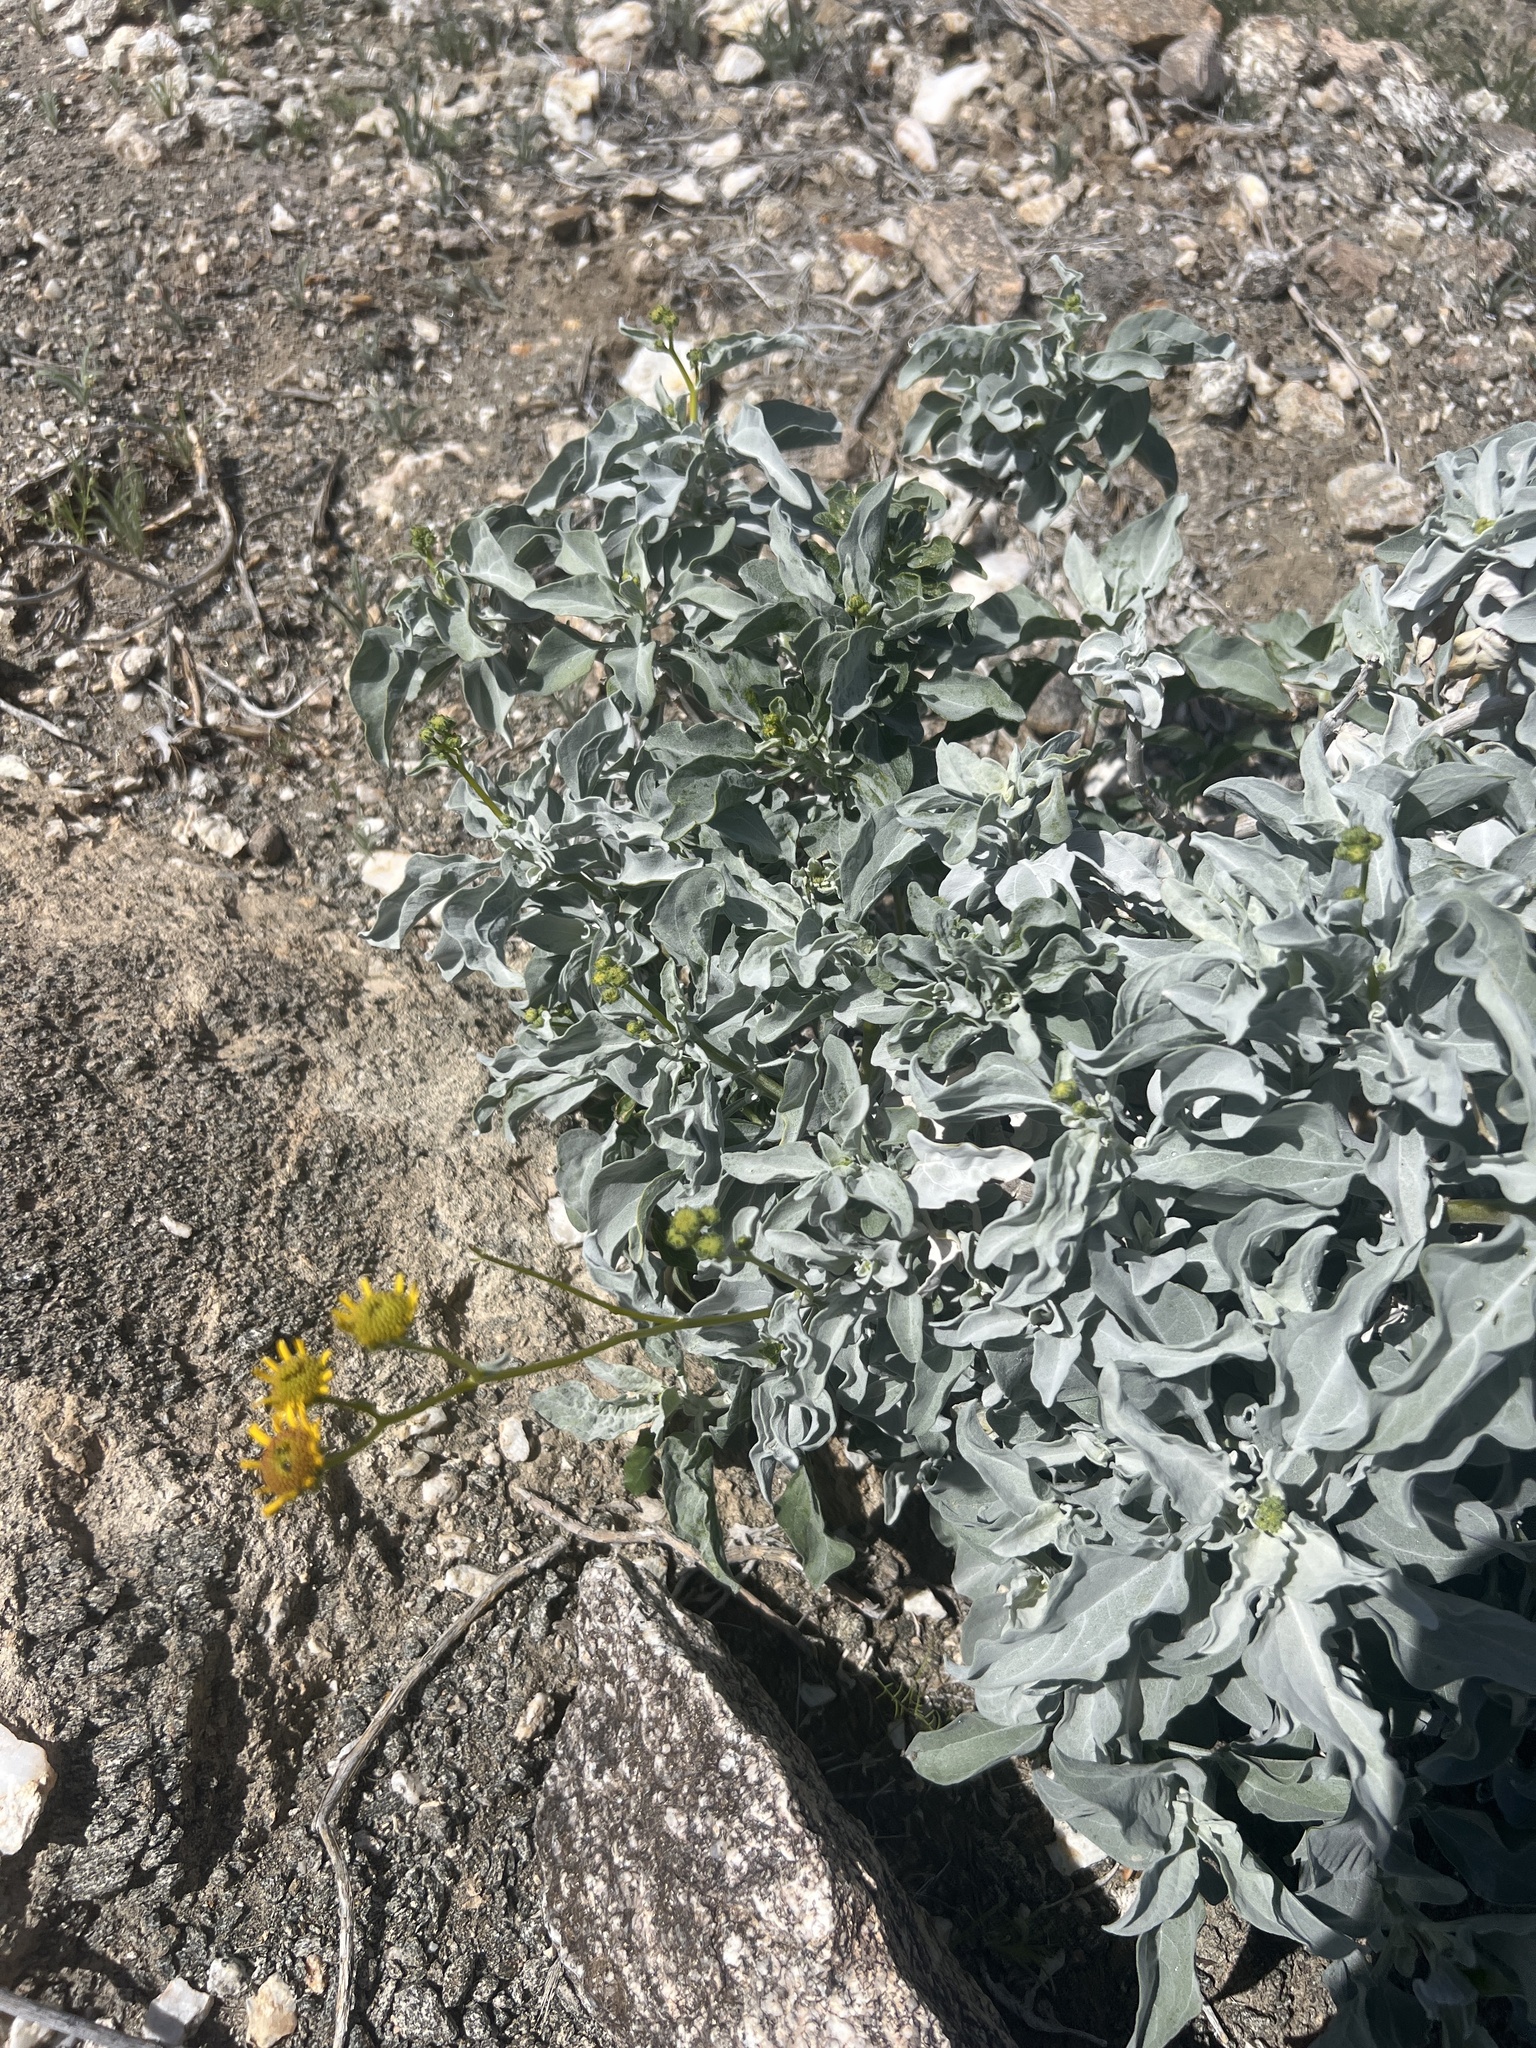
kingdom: Plantae
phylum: Tracheophyta
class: Magnoliopsida
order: Asterales
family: Asteraceae
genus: Encelia
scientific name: Encelia farinosa
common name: Brittlebush
